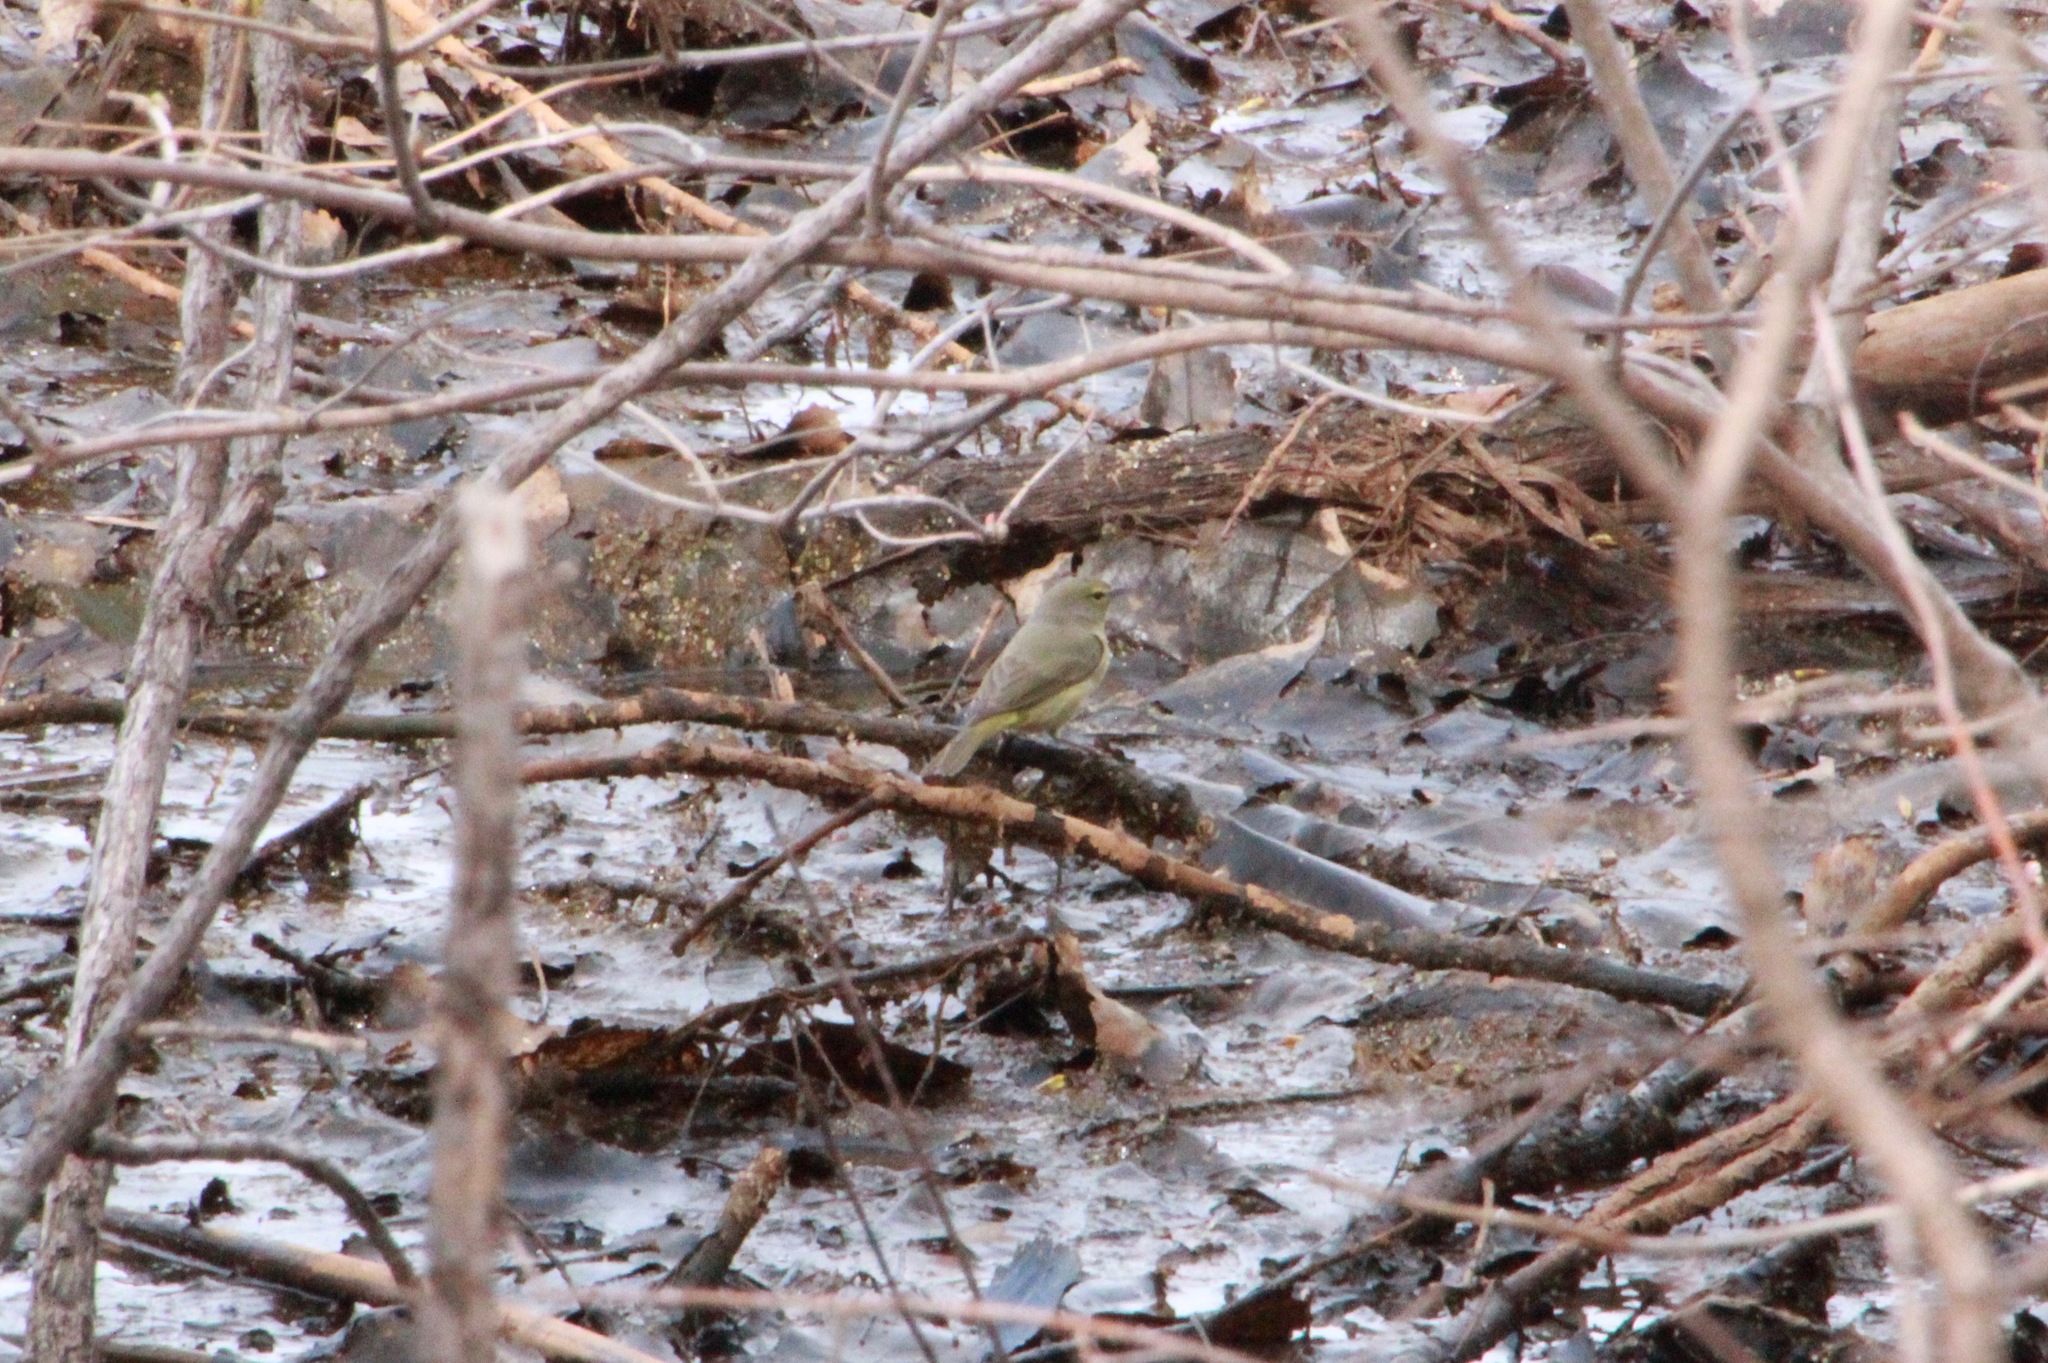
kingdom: Animalia
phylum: Chordata
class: Aves
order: Passeriformes
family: Parulidae
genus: Leiothlypis
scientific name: Leiothlypis celata
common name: Orange-crowned warbler
